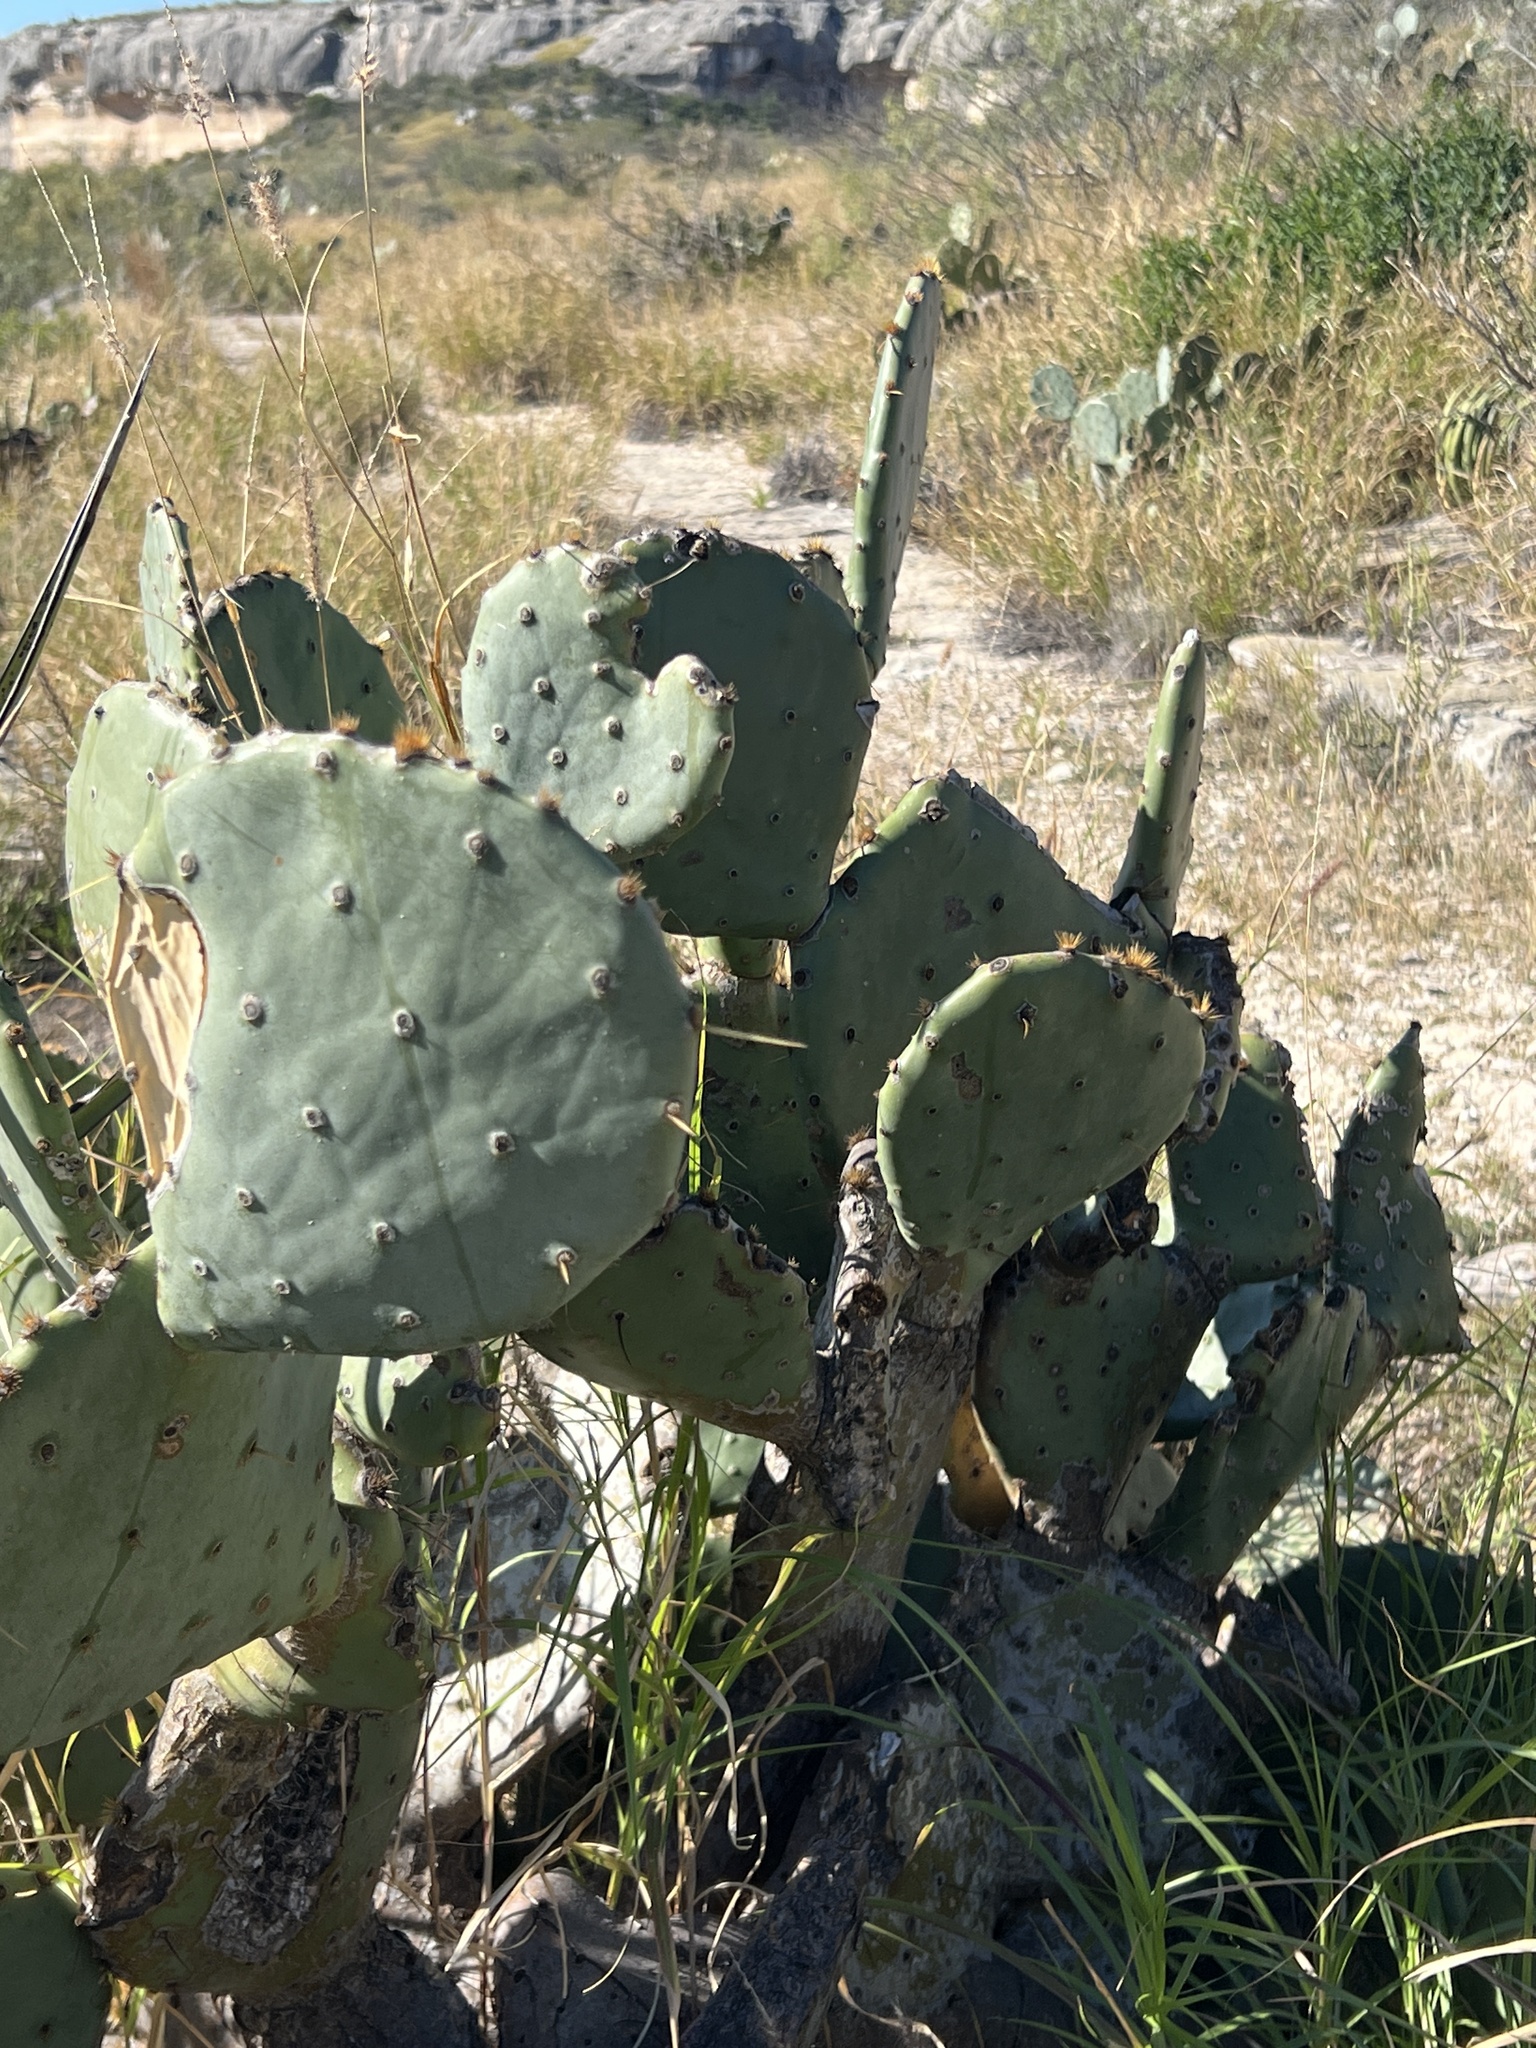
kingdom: Plantae
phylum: Tracheophyta
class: Magnoliopsida
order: Caryophyllales
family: Cactaceae
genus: Opuntia
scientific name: Opuntia engelmannii
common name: Cactus-apple
